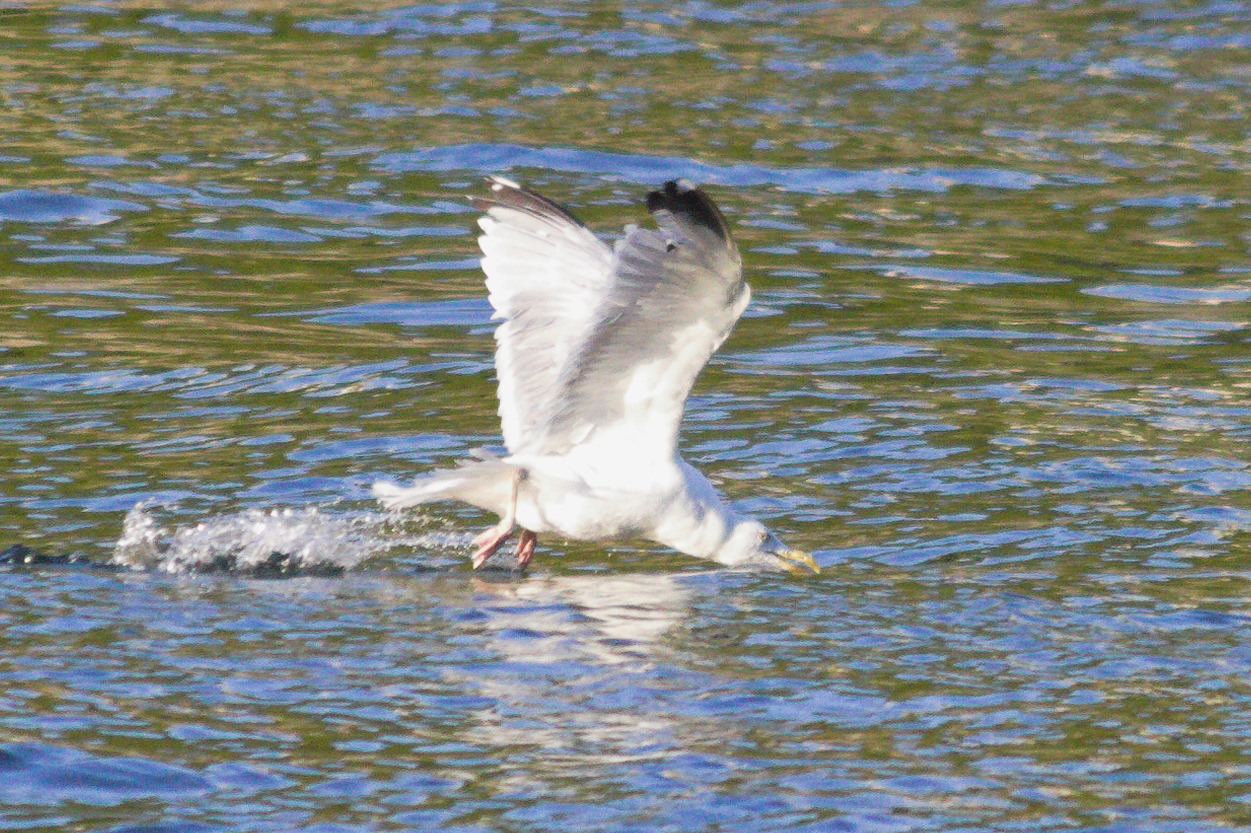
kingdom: Animalia
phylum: Chordata
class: Aves
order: Charadriiformes
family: Laridae
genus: Larus
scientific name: Larus argentatus
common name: Herring gull
